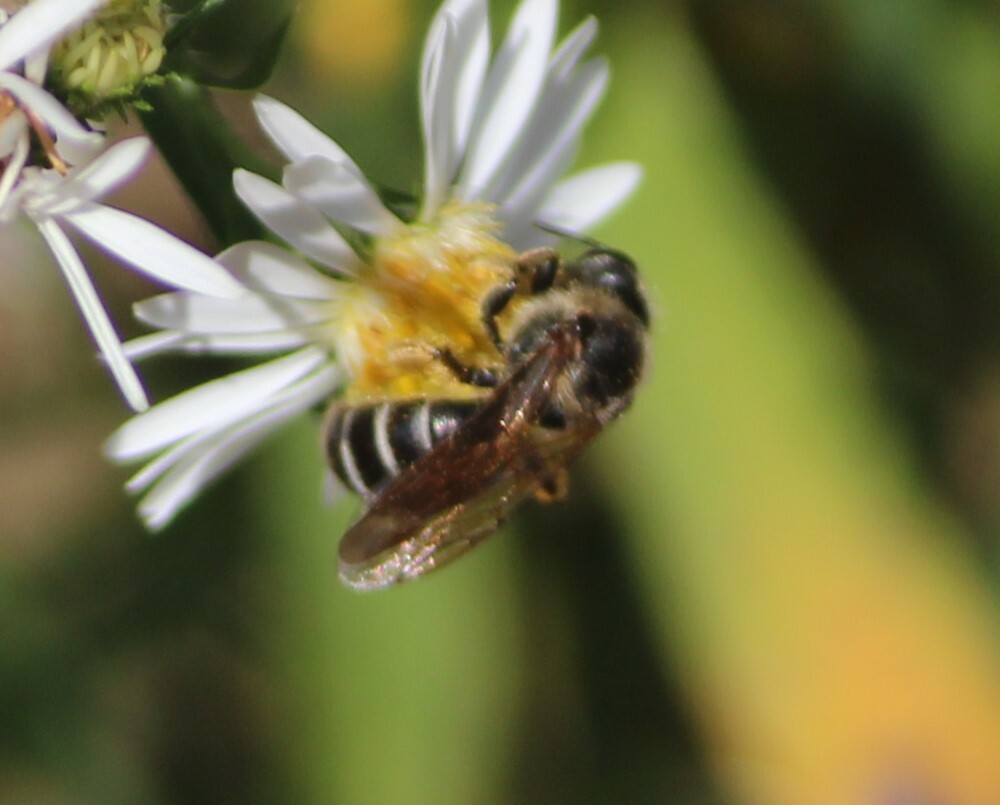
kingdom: Animalia
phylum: Arthropoda
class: Insecta
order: Hymenoptera
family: Halictidae
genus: Halictus
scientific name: Halictus rubicundus
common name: Orange-legged furrow bee
